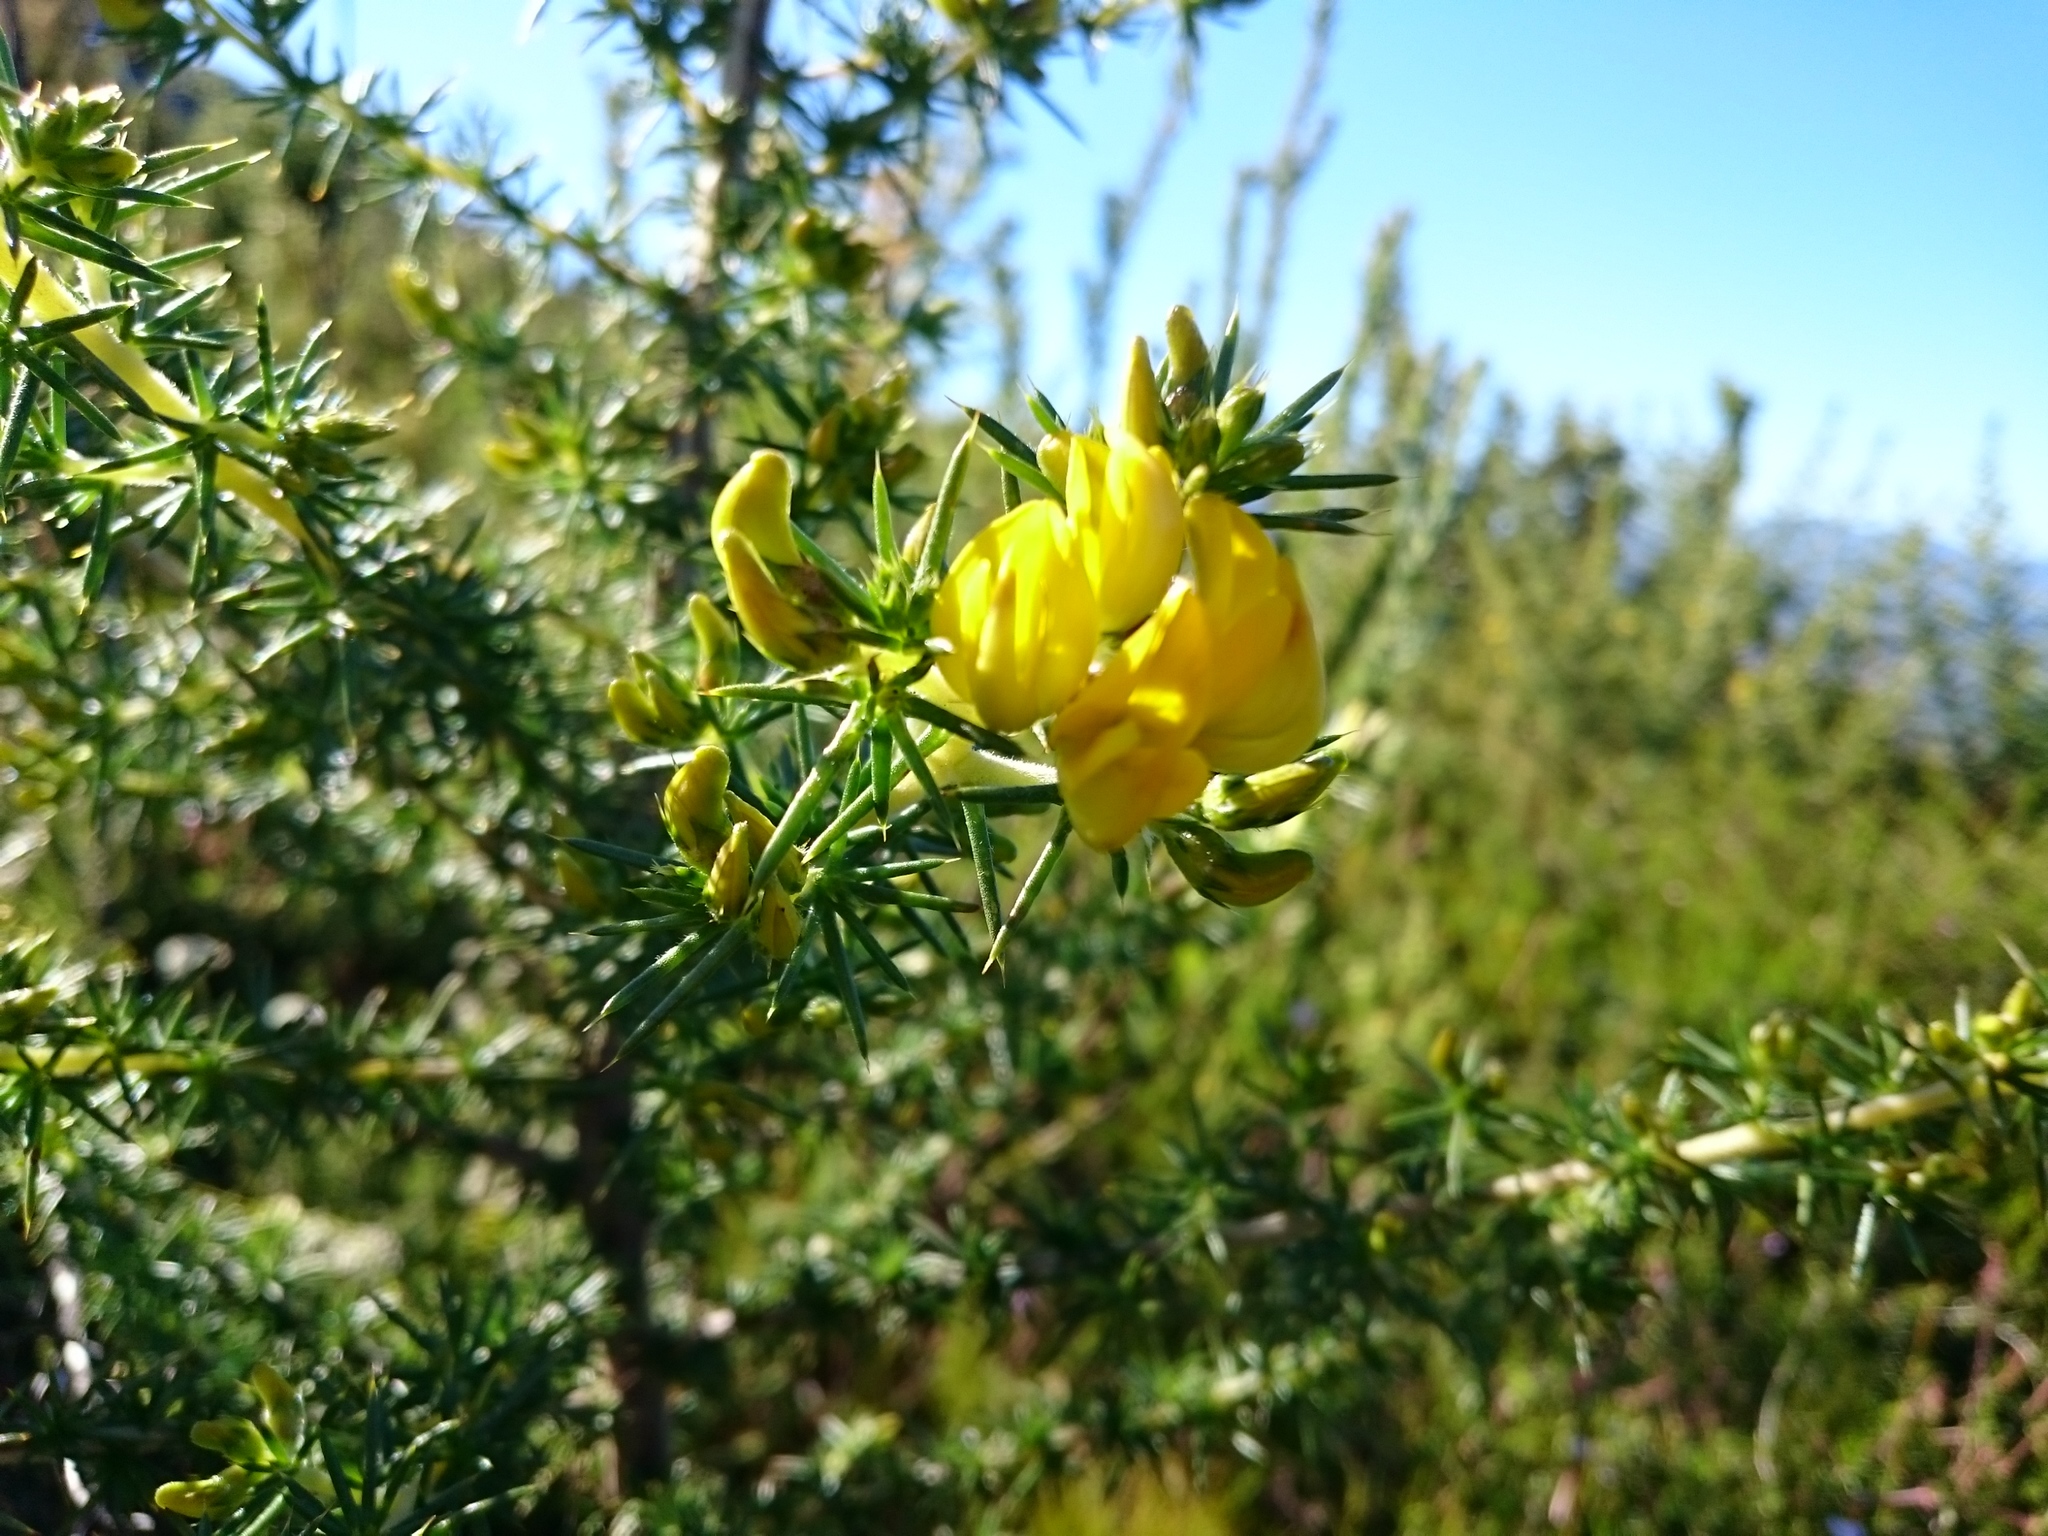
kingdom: Plantae
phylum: Tracheophyta
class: Magnoliopsida
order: Fabales
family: Fabaceae
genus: Aspalathus
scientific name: Aspalathus astroites
